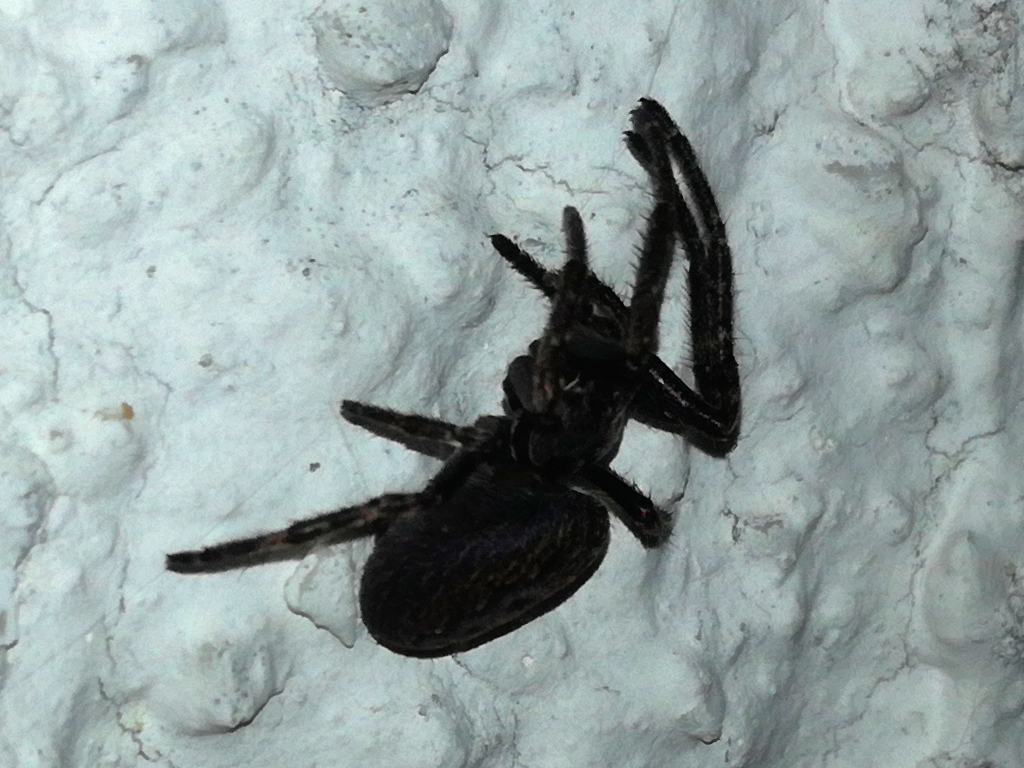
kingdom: Animalia
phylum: Arthropoda
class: Arachnida
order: Araneae
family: Araneidae
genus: Nuctenea
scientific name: Nuctenea umbratica
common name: Toad spider
